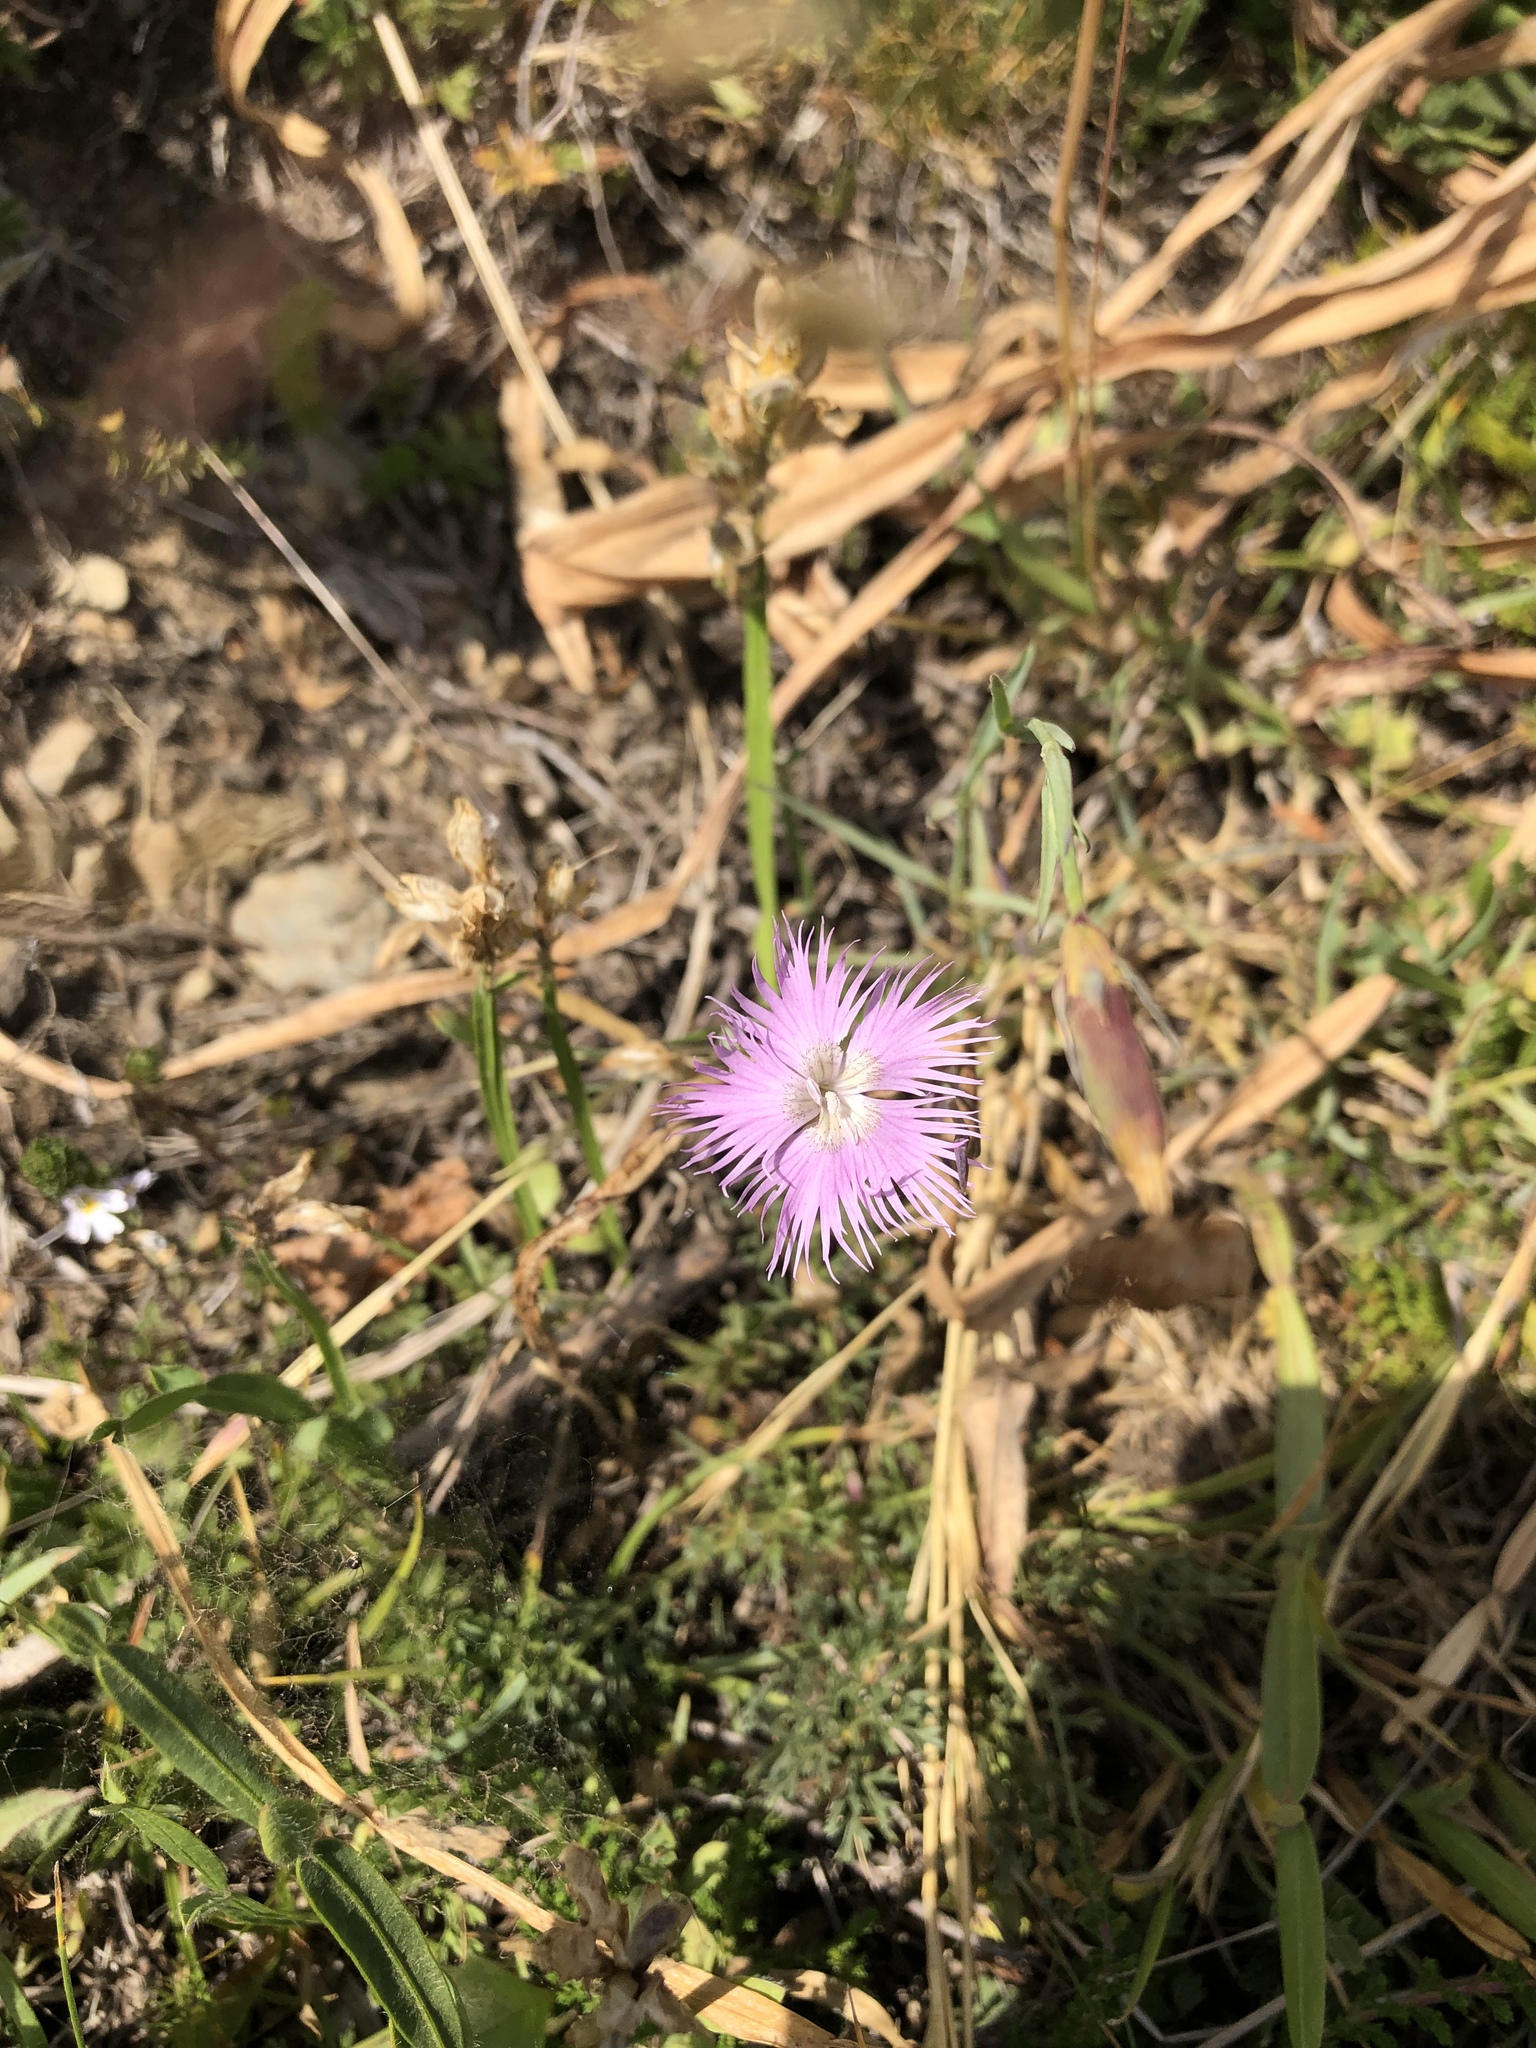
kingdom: Plantae
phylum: Tracheophyta
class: Magnoliopsida
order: Caryophyllales
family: Caryophyllaceae
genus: Dianthus
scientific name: Dianthus hyssopifolius
